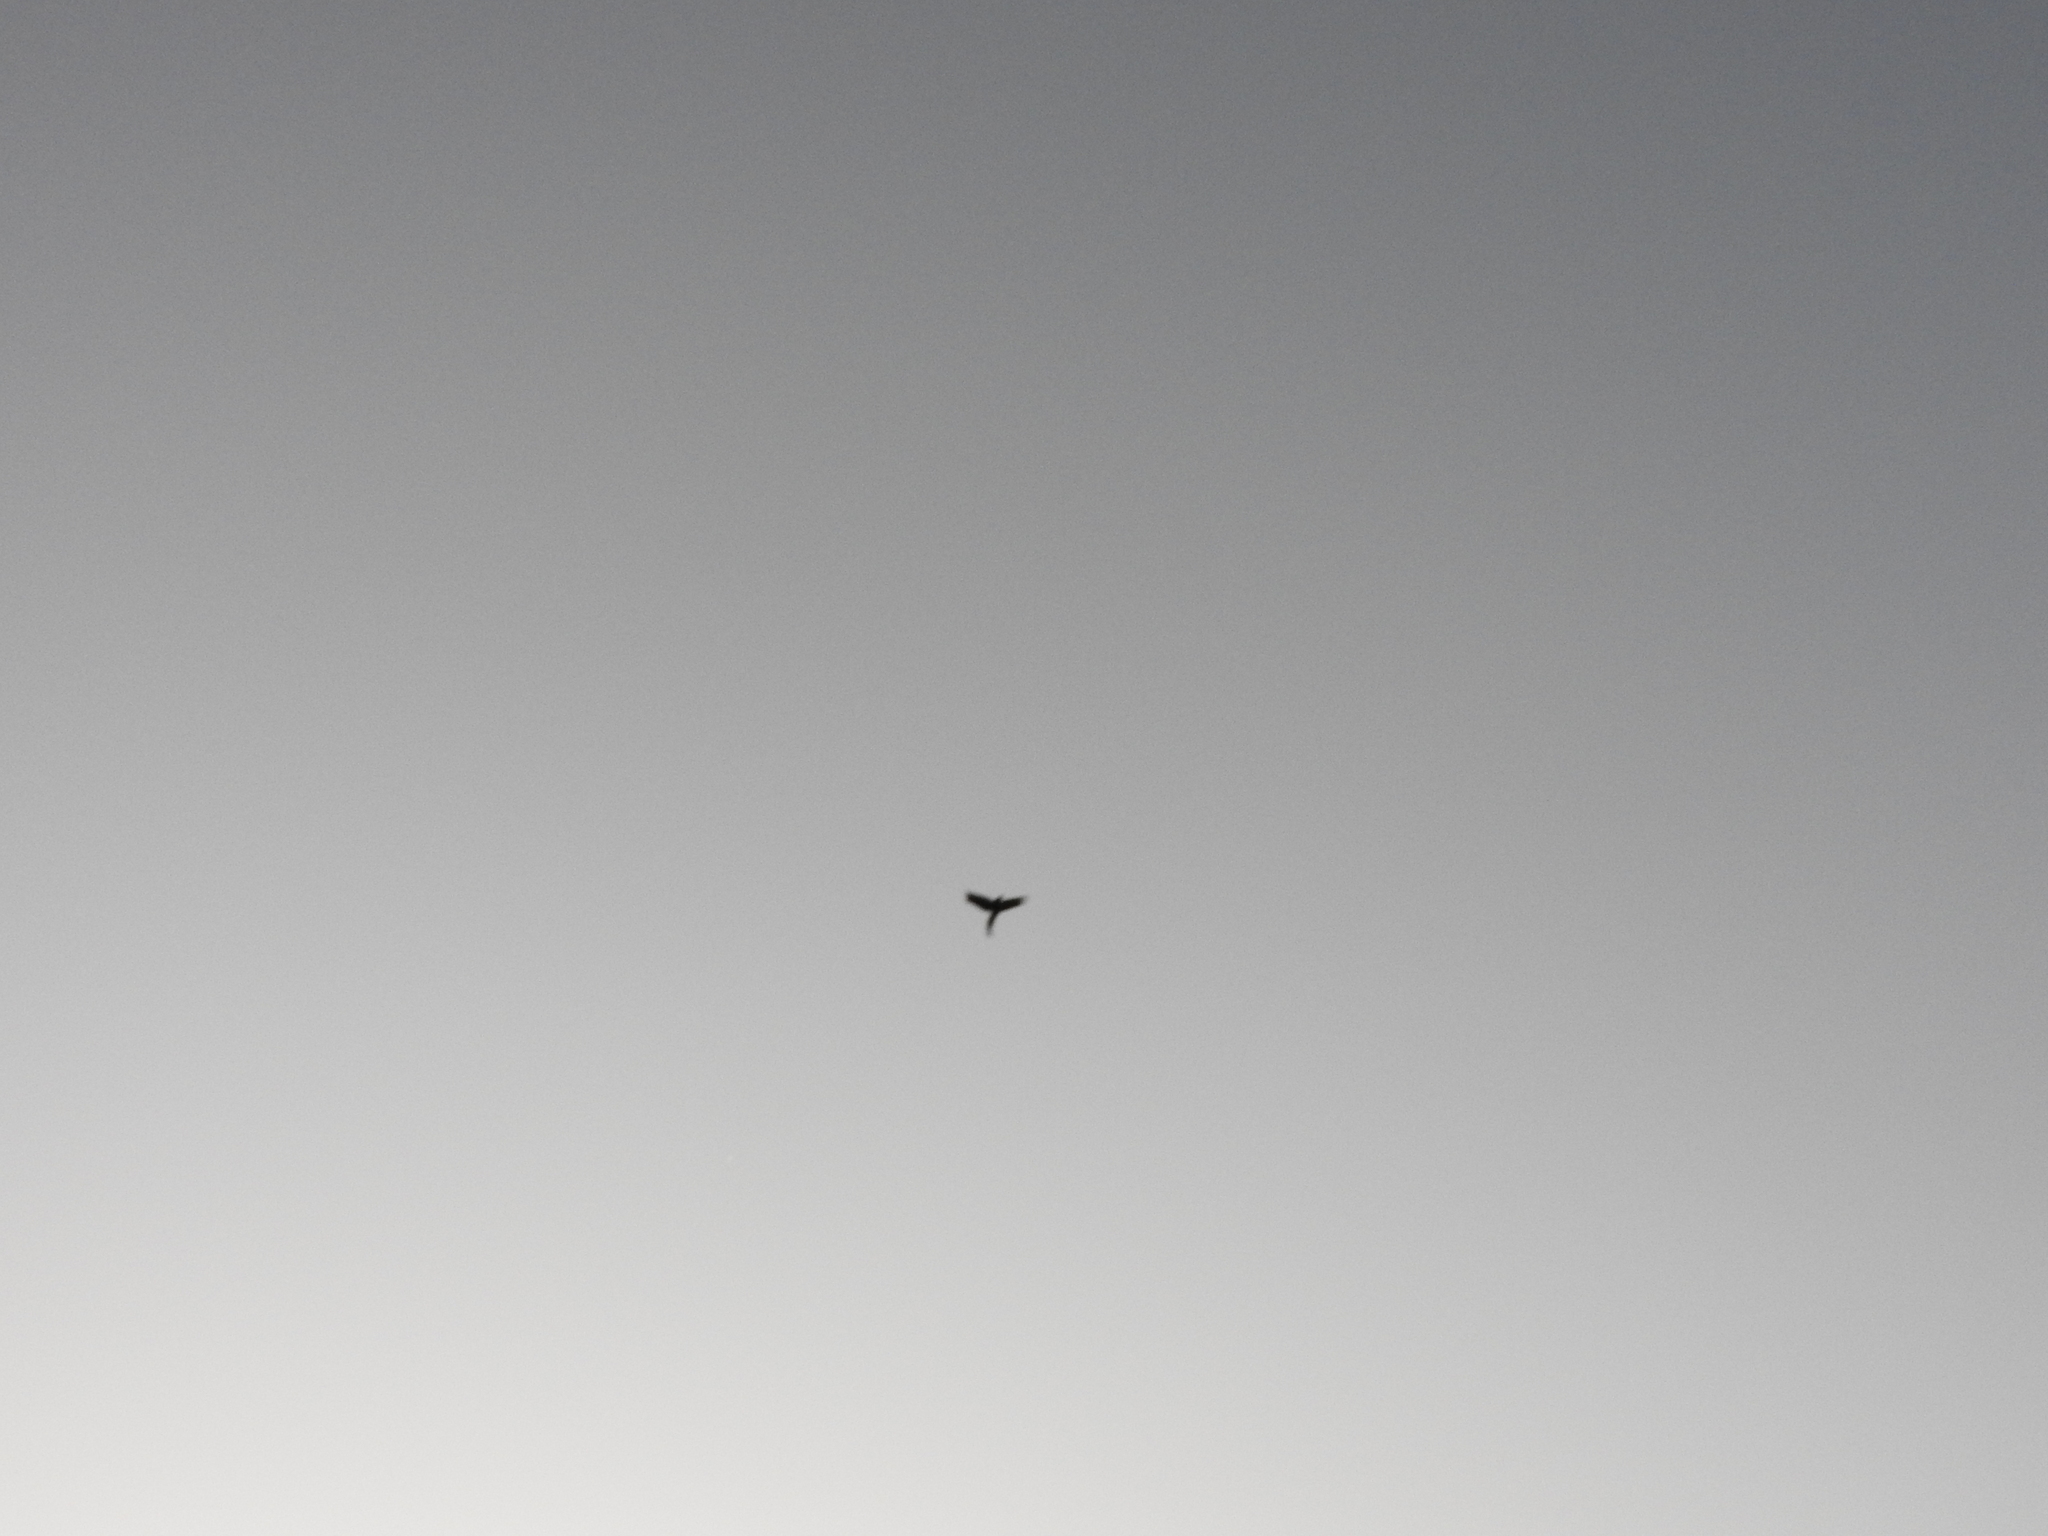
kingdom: Animalia
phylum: Chordata
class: Aves
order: Passeriformes
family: Icteridae
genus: Quiscalus
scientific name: Quiscalus mexicanus
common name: Great-tailed grackle
